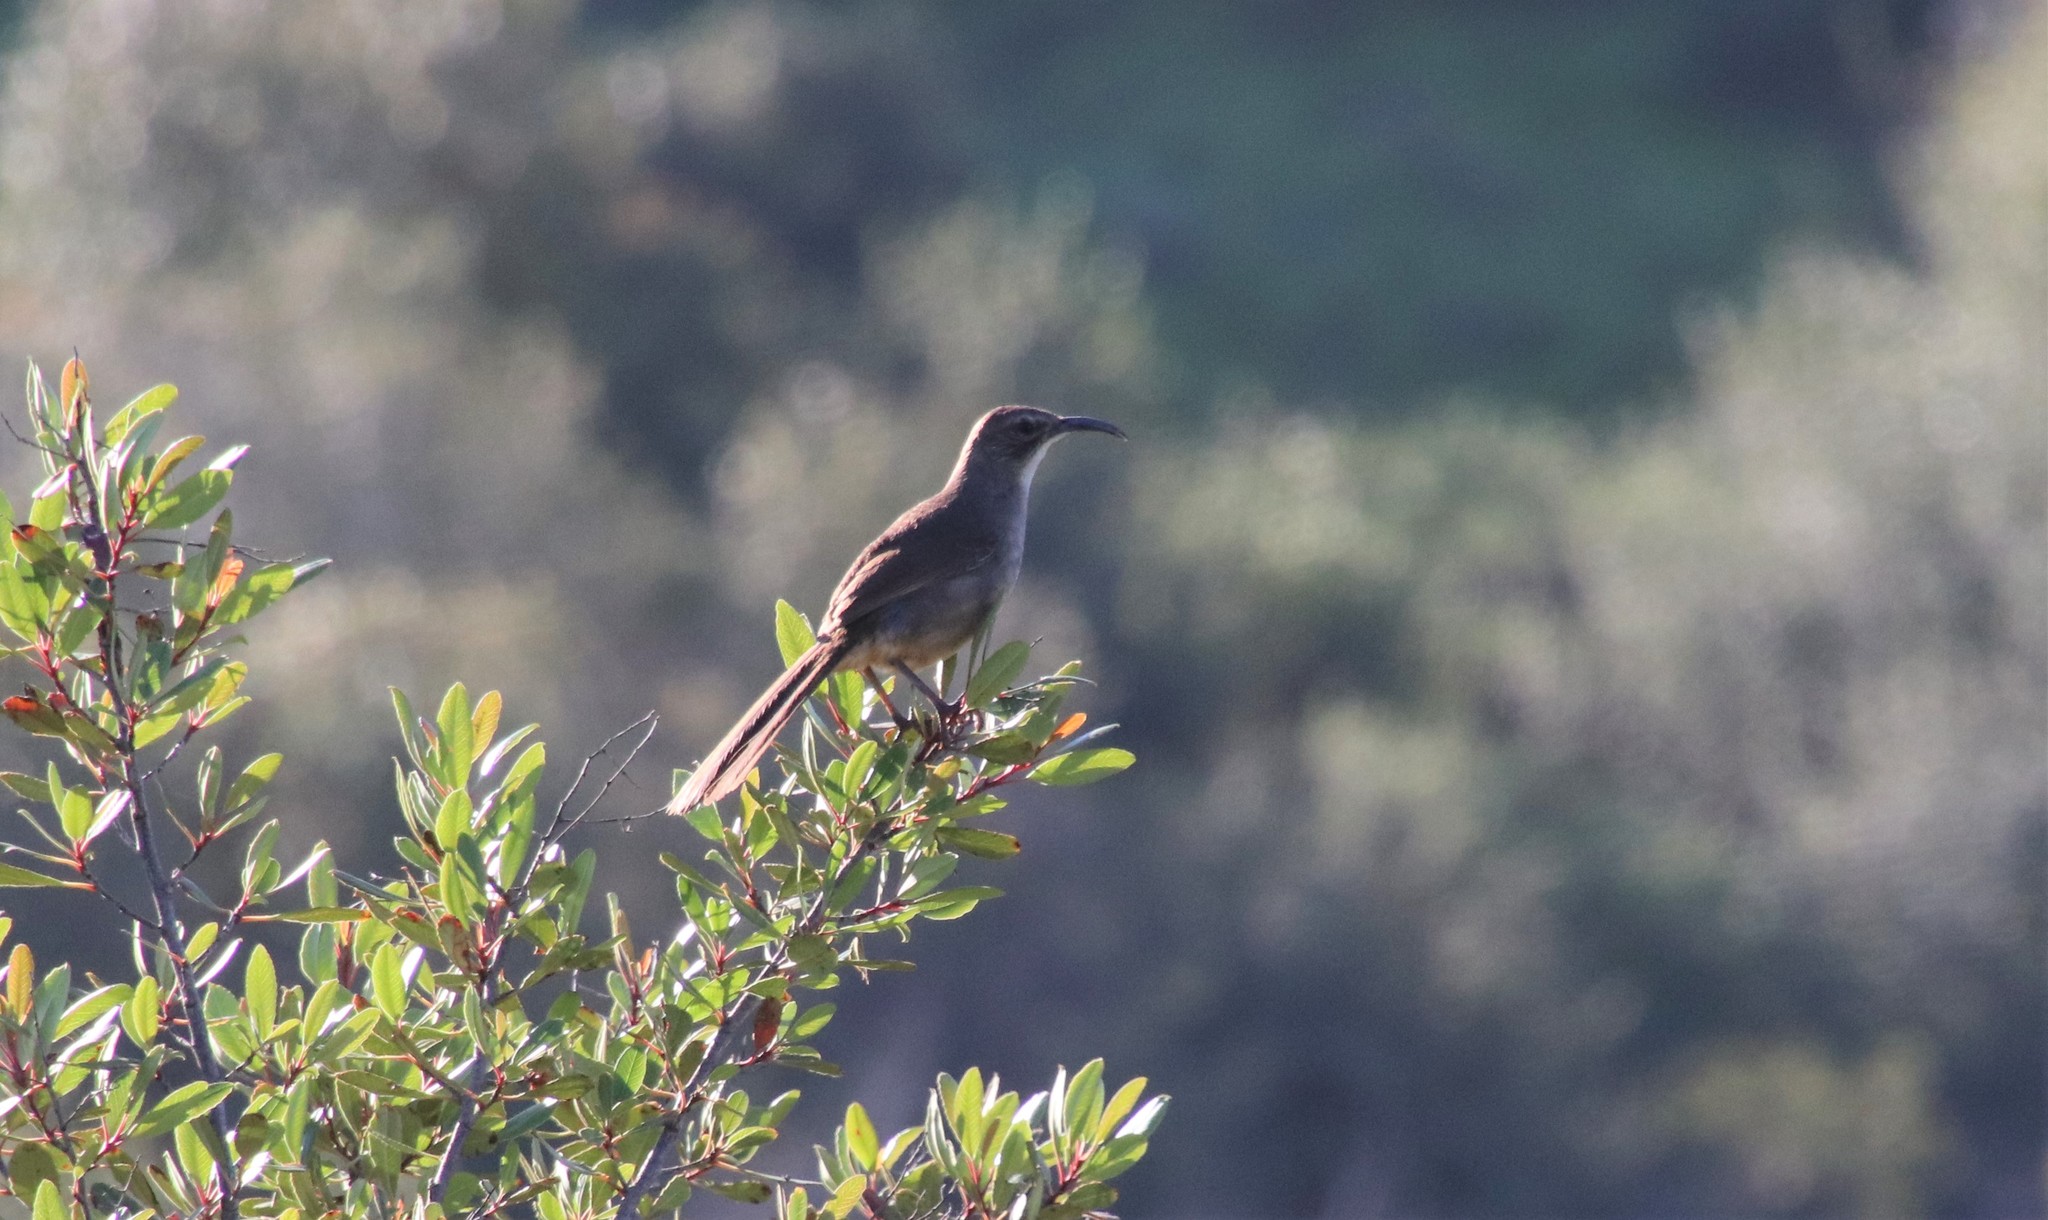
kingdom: Animalia
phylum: Chordata
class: Aves
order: Passeriformes
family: Mimidae
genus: Toxostoma
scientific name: Toxostoma redivivum
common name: California thrasher
